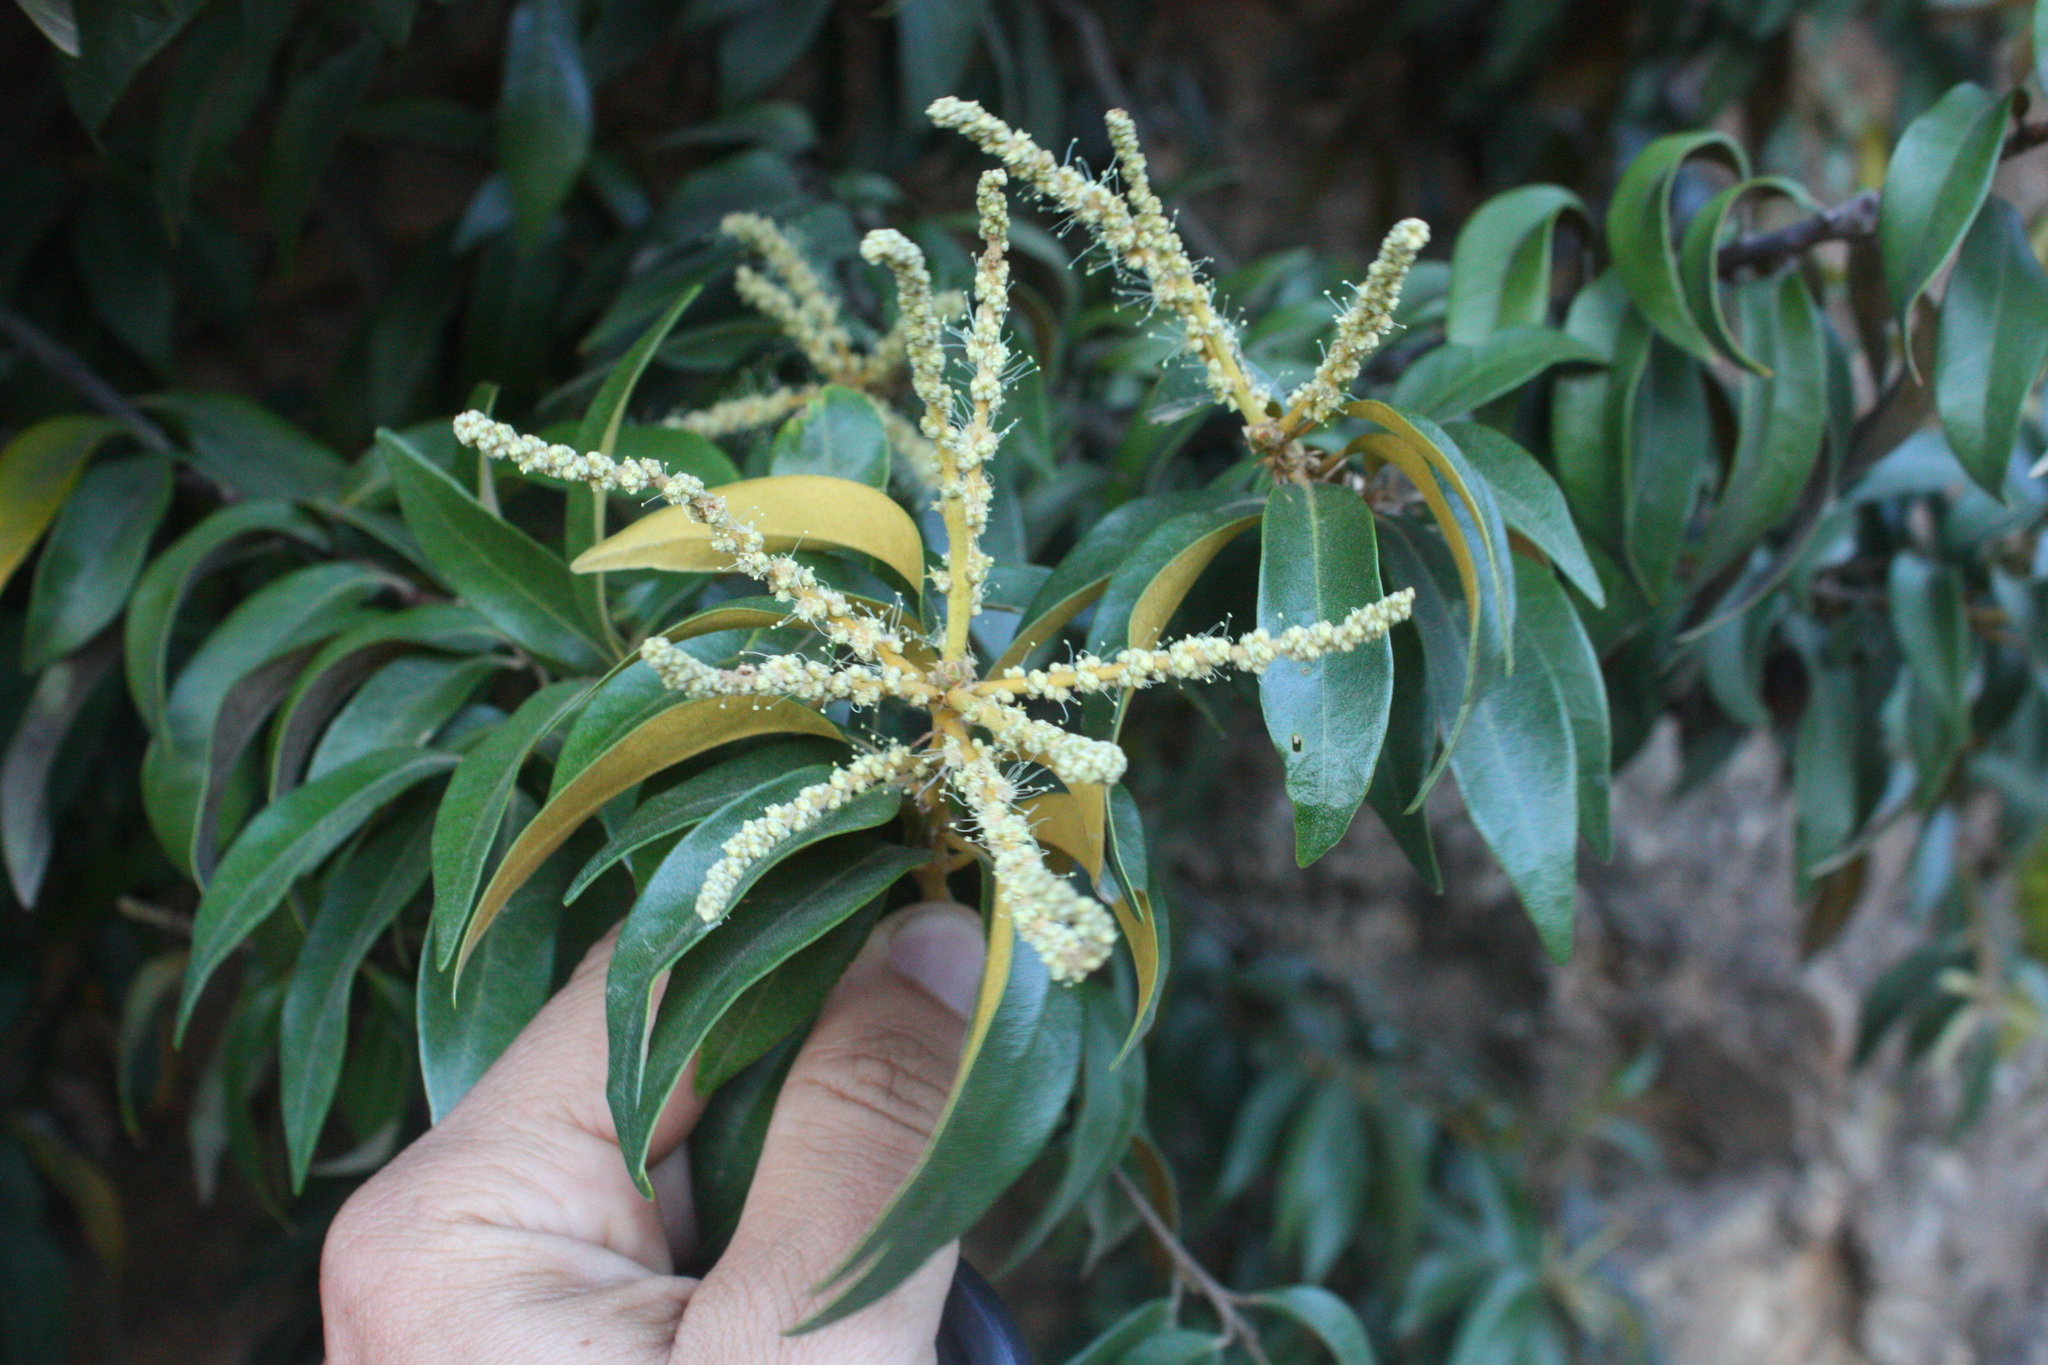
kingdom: Plantae
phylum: Tracheophyta
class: Magnoliopsida
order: Fagales
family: Fagaceae
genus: Chrysolepis
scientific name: Chrysolepis chrysophylla
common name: Giant chinquapin
